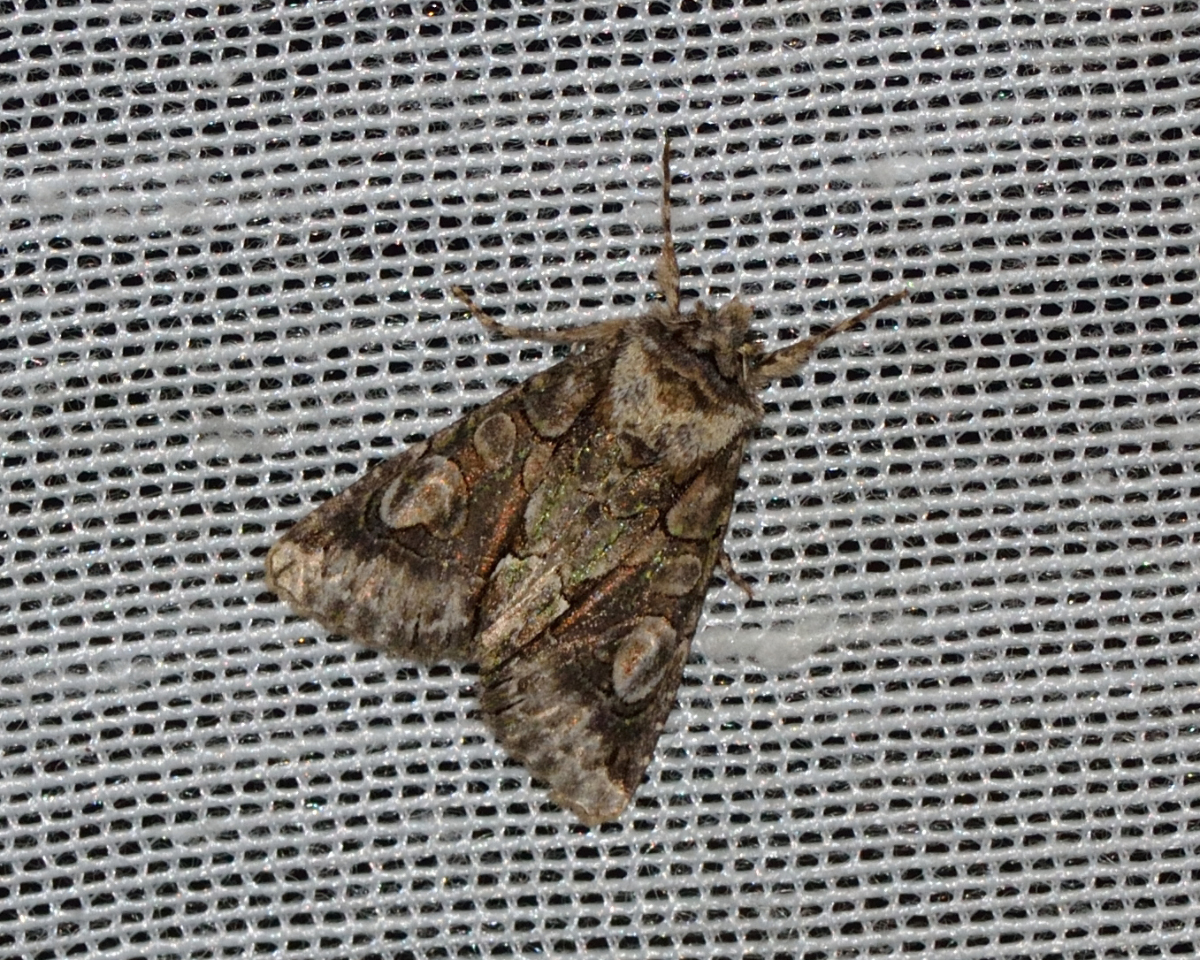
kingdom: Animalia
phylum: Arthropoda
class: Insecta
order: Lepidoptera
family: Noctuidae
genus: Allophyes
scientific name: Allophyes oxyacanthae
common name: Green-brindled crescent
